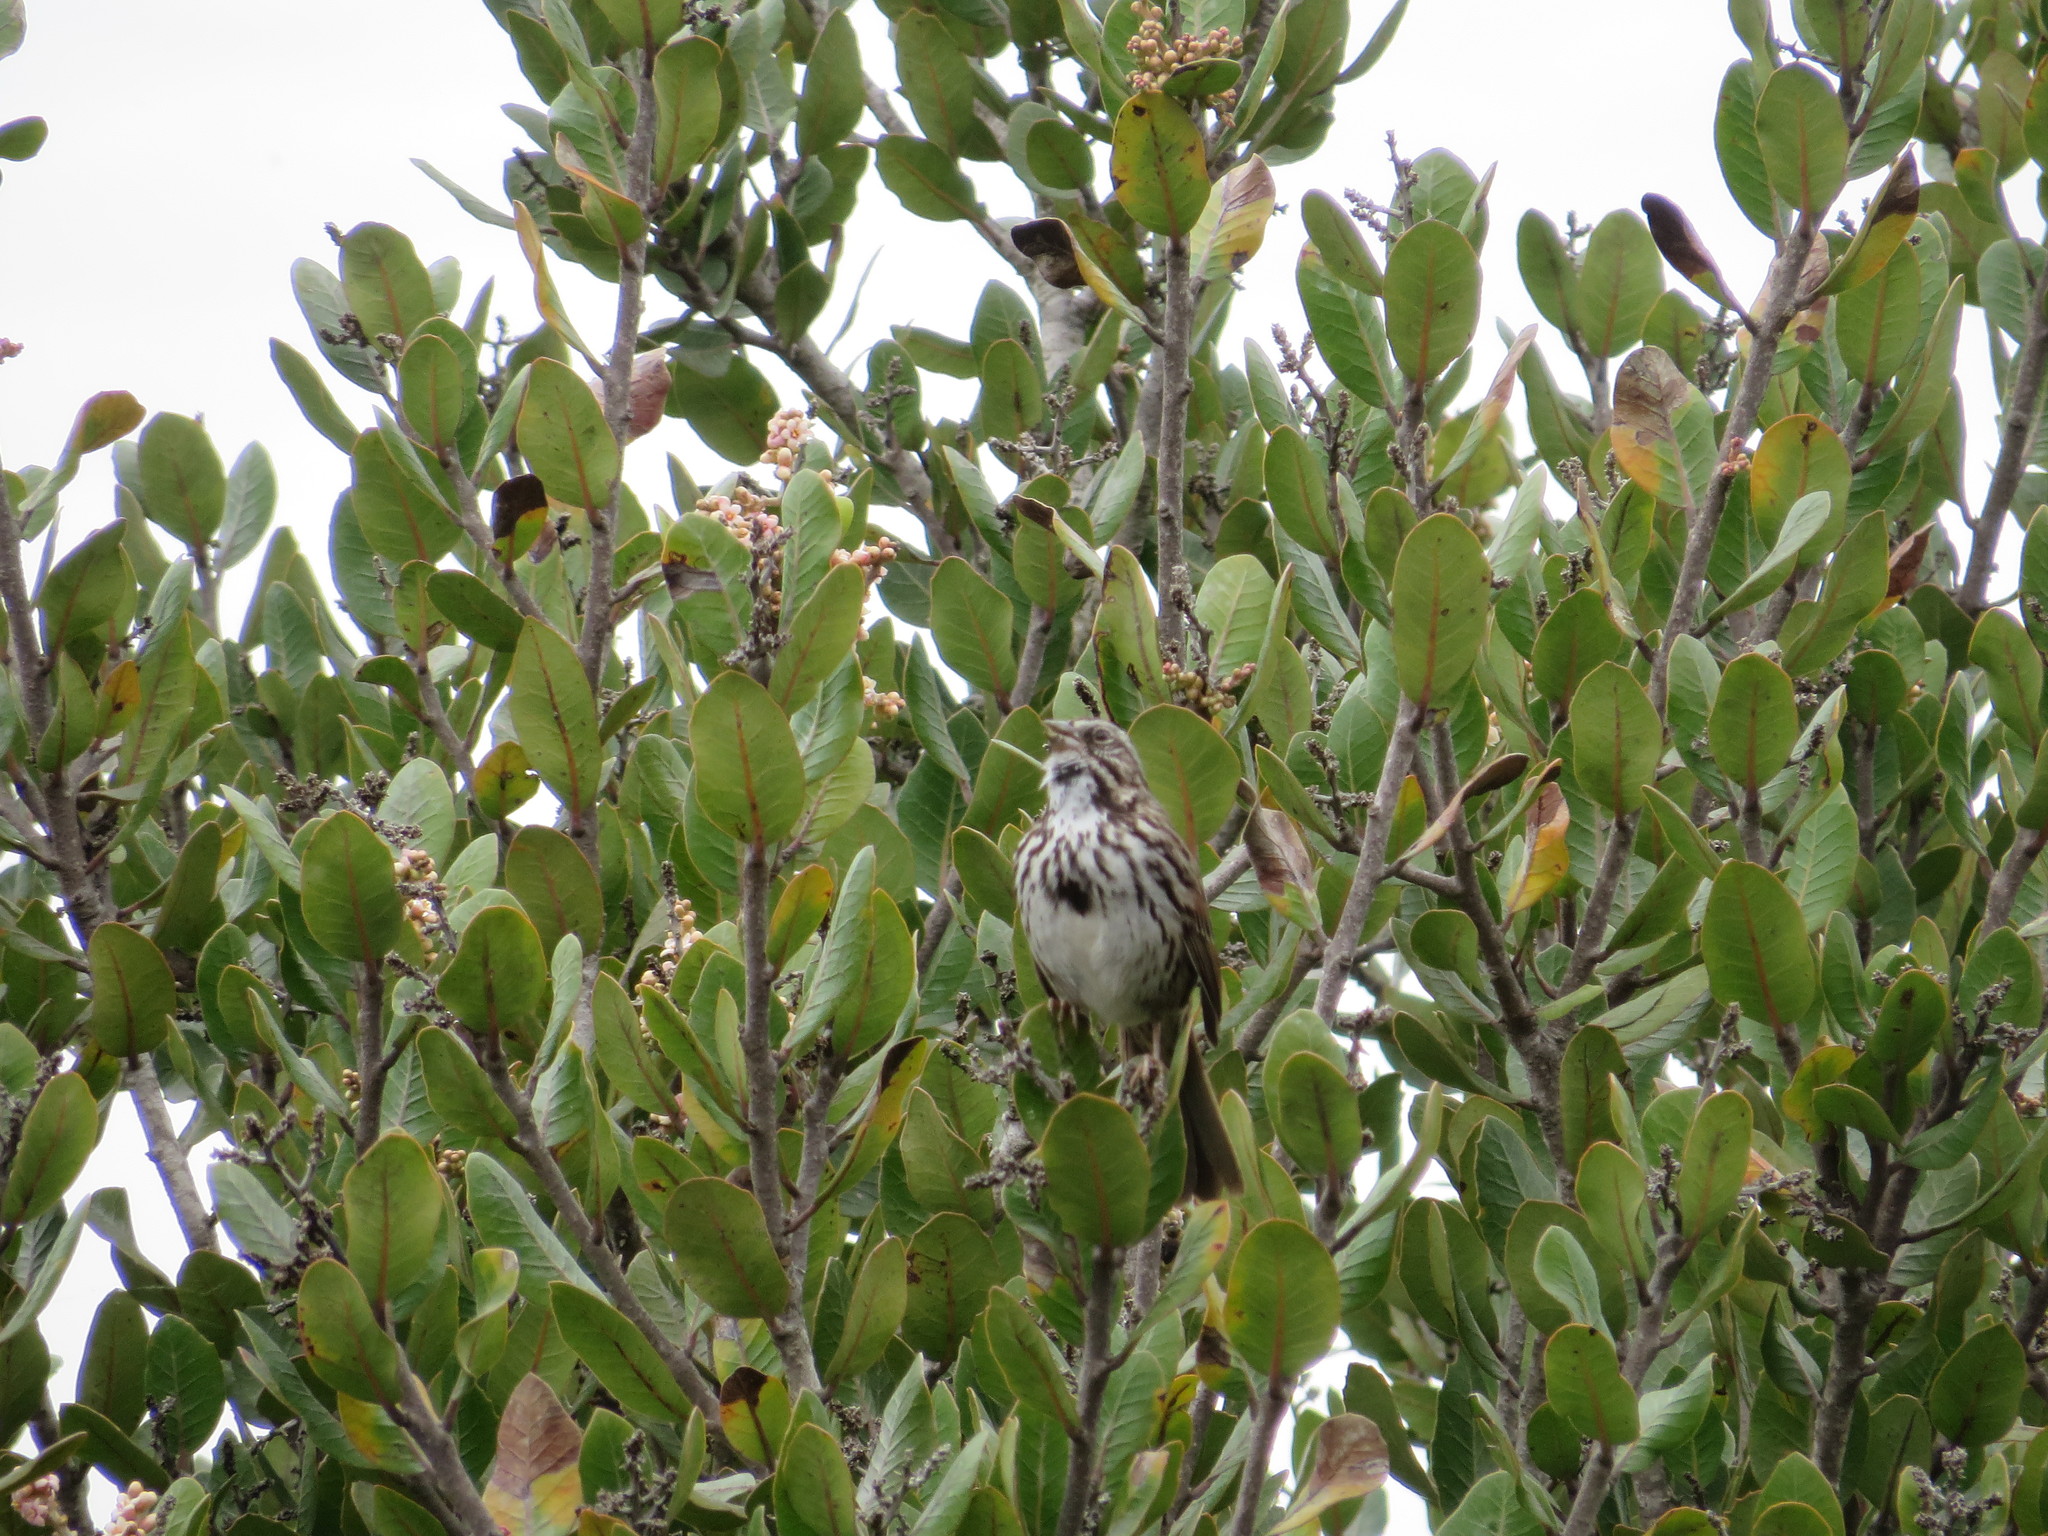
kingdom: Animalia
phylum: Chordata
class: Aves
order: Passeriformes
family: Passerellidae
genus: Melospiza
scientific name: Melospiza melodia
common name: Song sparrow
